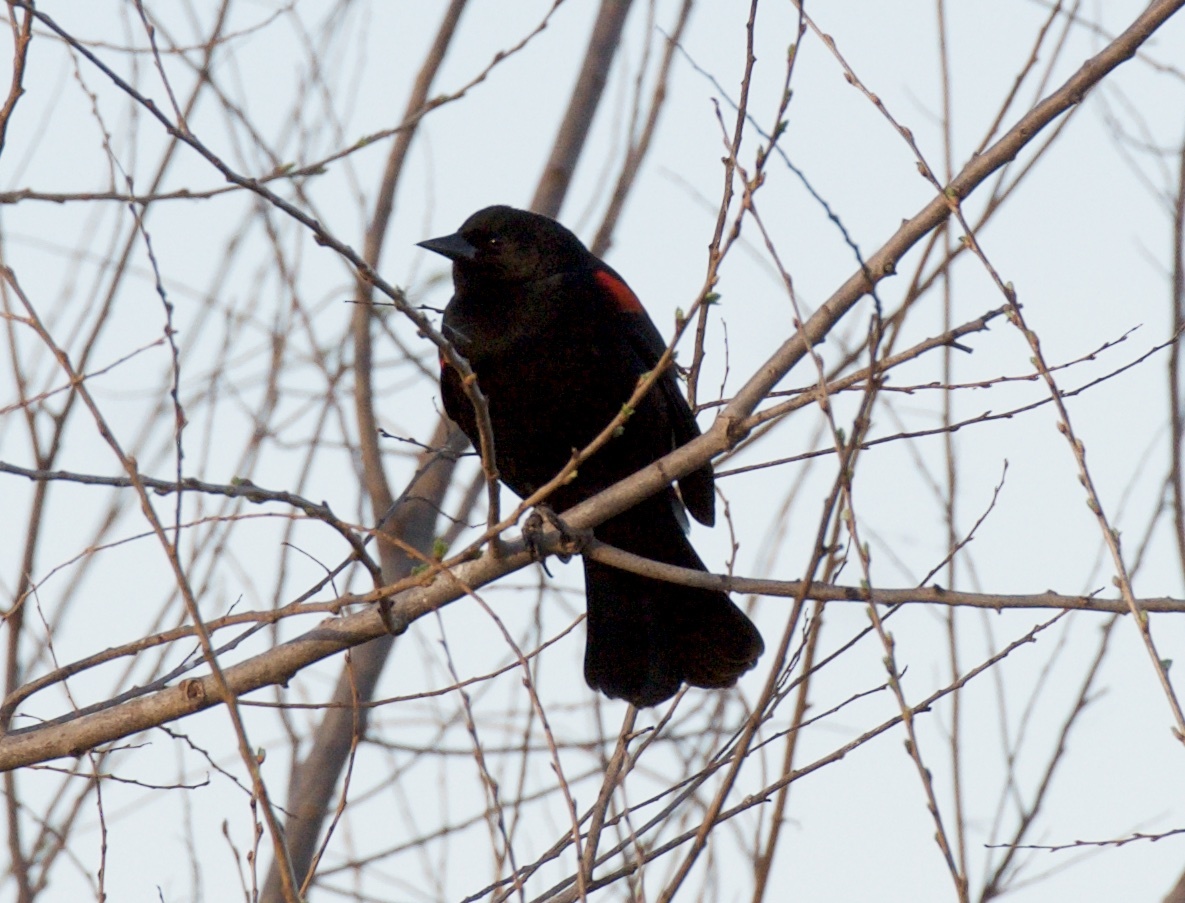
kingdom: Animalia
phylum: Chordata
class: Aves
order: Passeriformes
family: Icteridae
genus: Agelaius
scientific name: Agelaius phoeniceus
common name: Red-winged blackbird
